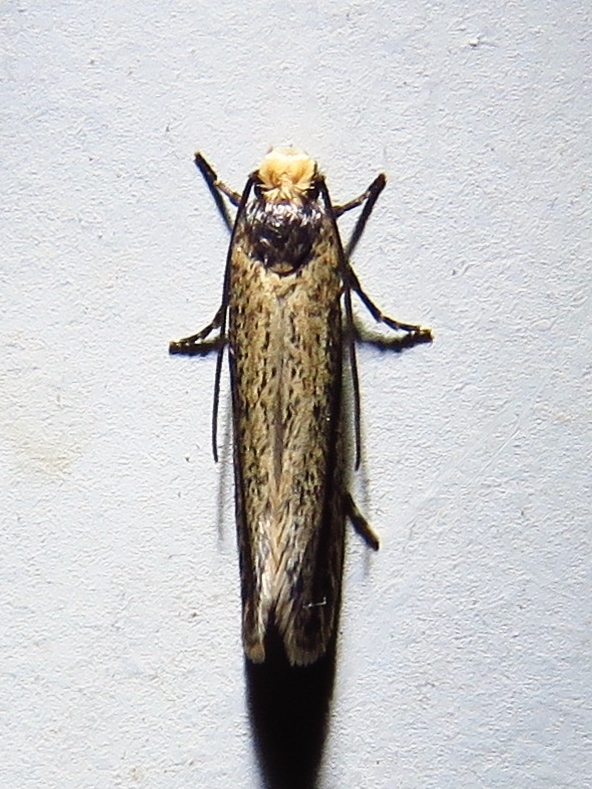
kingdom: Animalia
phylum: Arthropoda
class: Insecta
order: Lepidoptera
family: Tineidae
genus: Tinea
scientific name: Tinea apicimaculella
